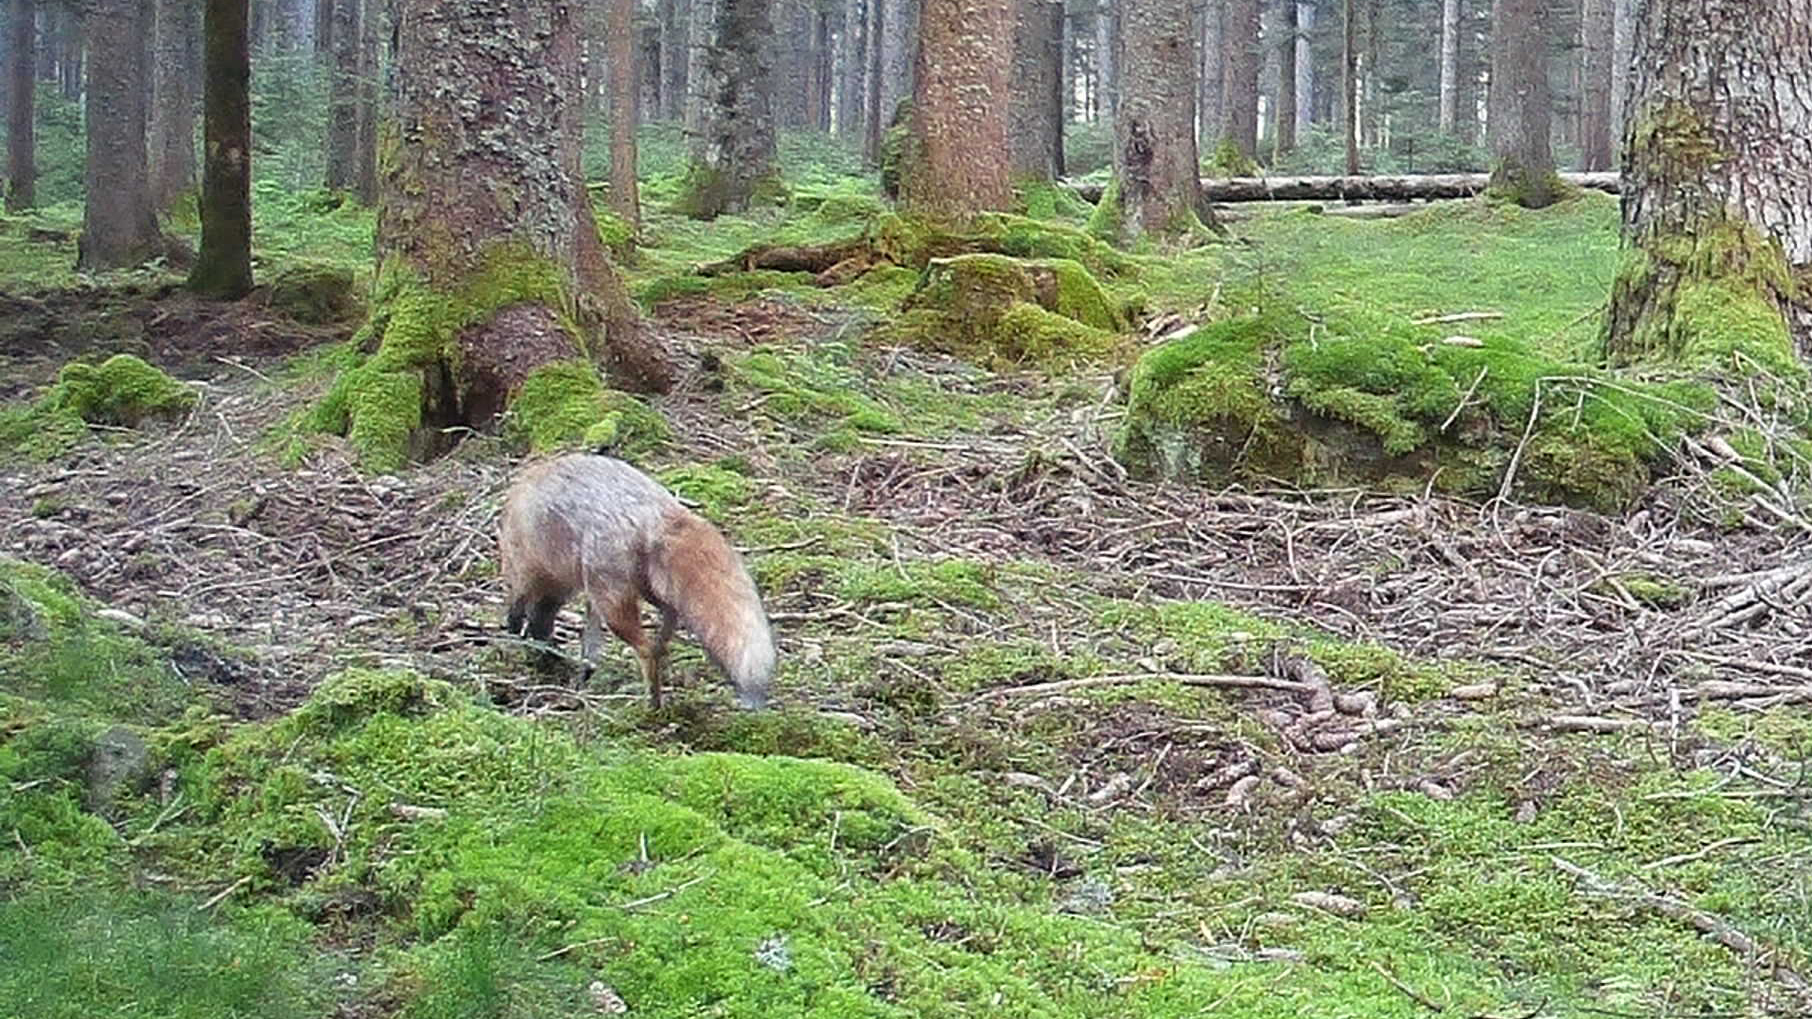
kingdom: Animalia
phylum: Chordata
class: Mammalia
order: Carnivora
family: Canidae
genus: Vulpes
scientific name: Vulpes vulpes
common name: Red fox
